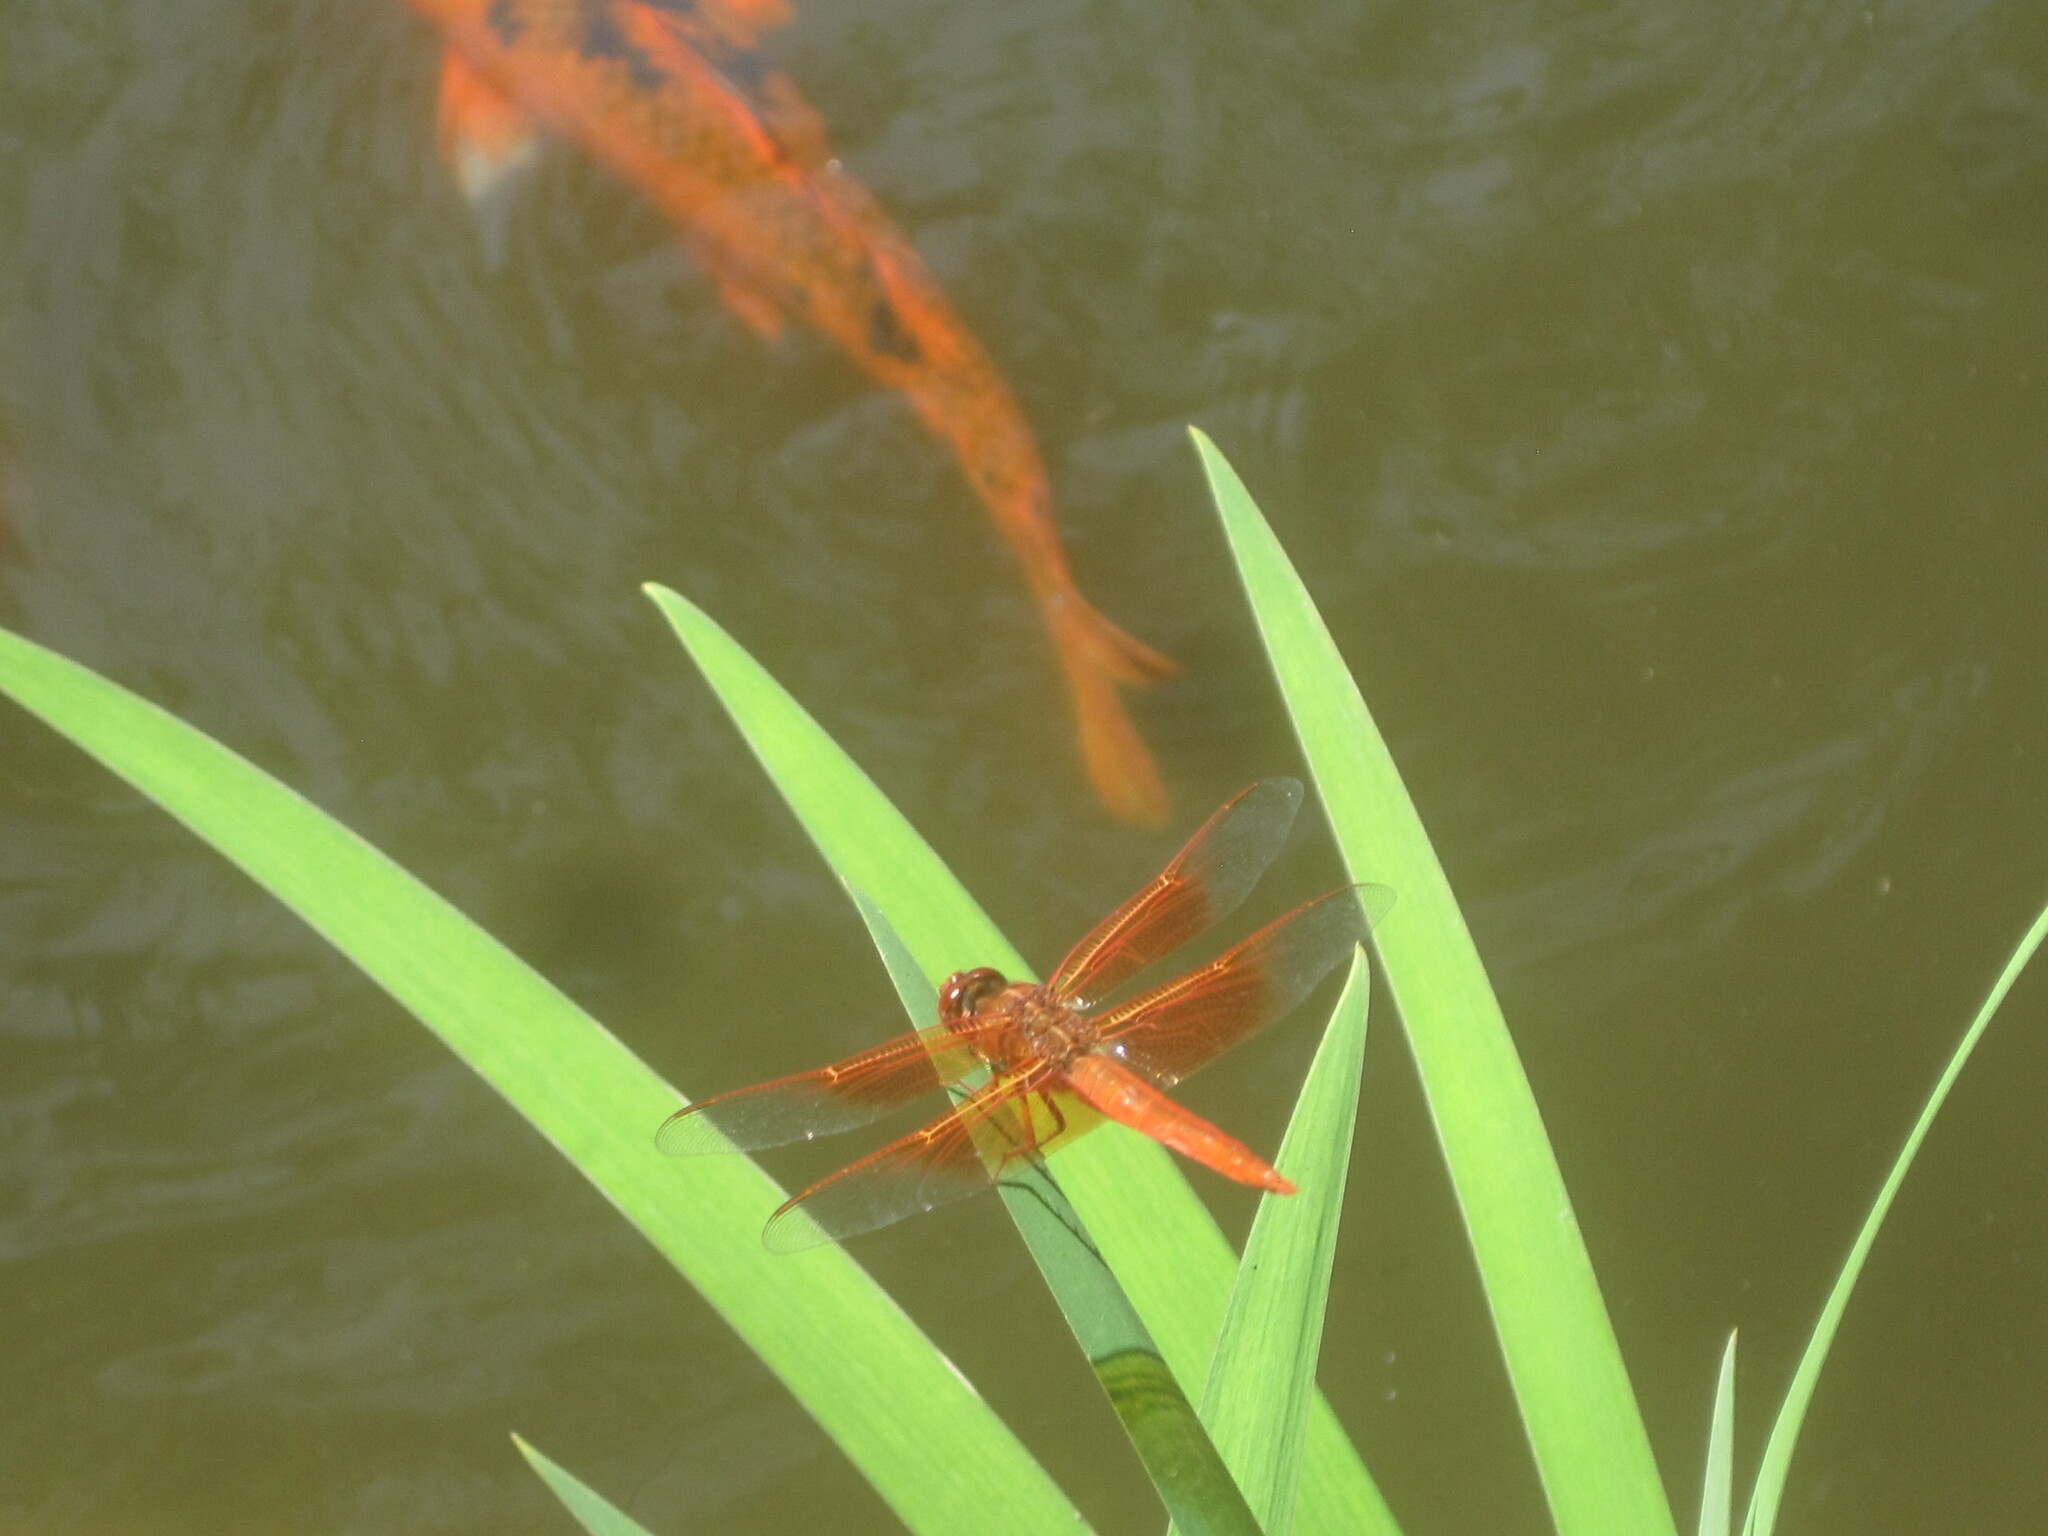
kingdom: Animalia
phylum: Arthropoda
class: Insecta
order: Odonata
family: Libellulidae
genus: Libellula
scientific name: Libellula saturata
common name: Flame skimmer
